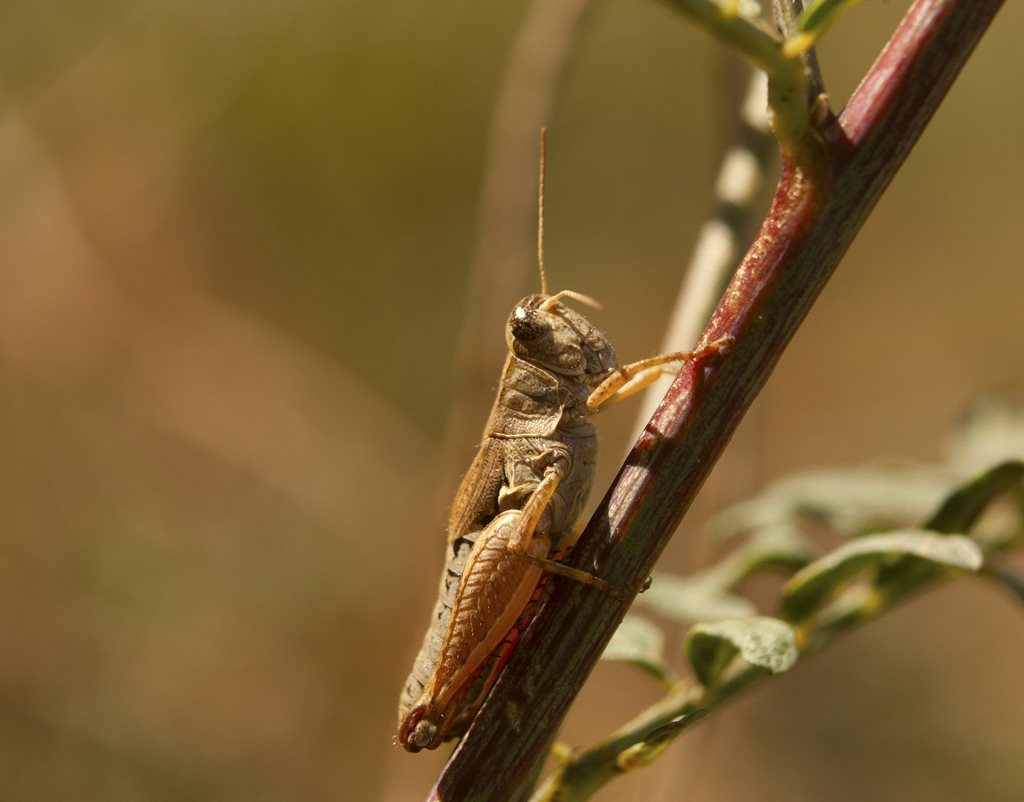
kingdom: Animalia
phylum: Arthropoda
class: Insecta
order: Orthoptera
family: Acrididae
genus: Phaulacridium
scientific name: Phaulacridium vittatum
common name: Wingless grasshopper
